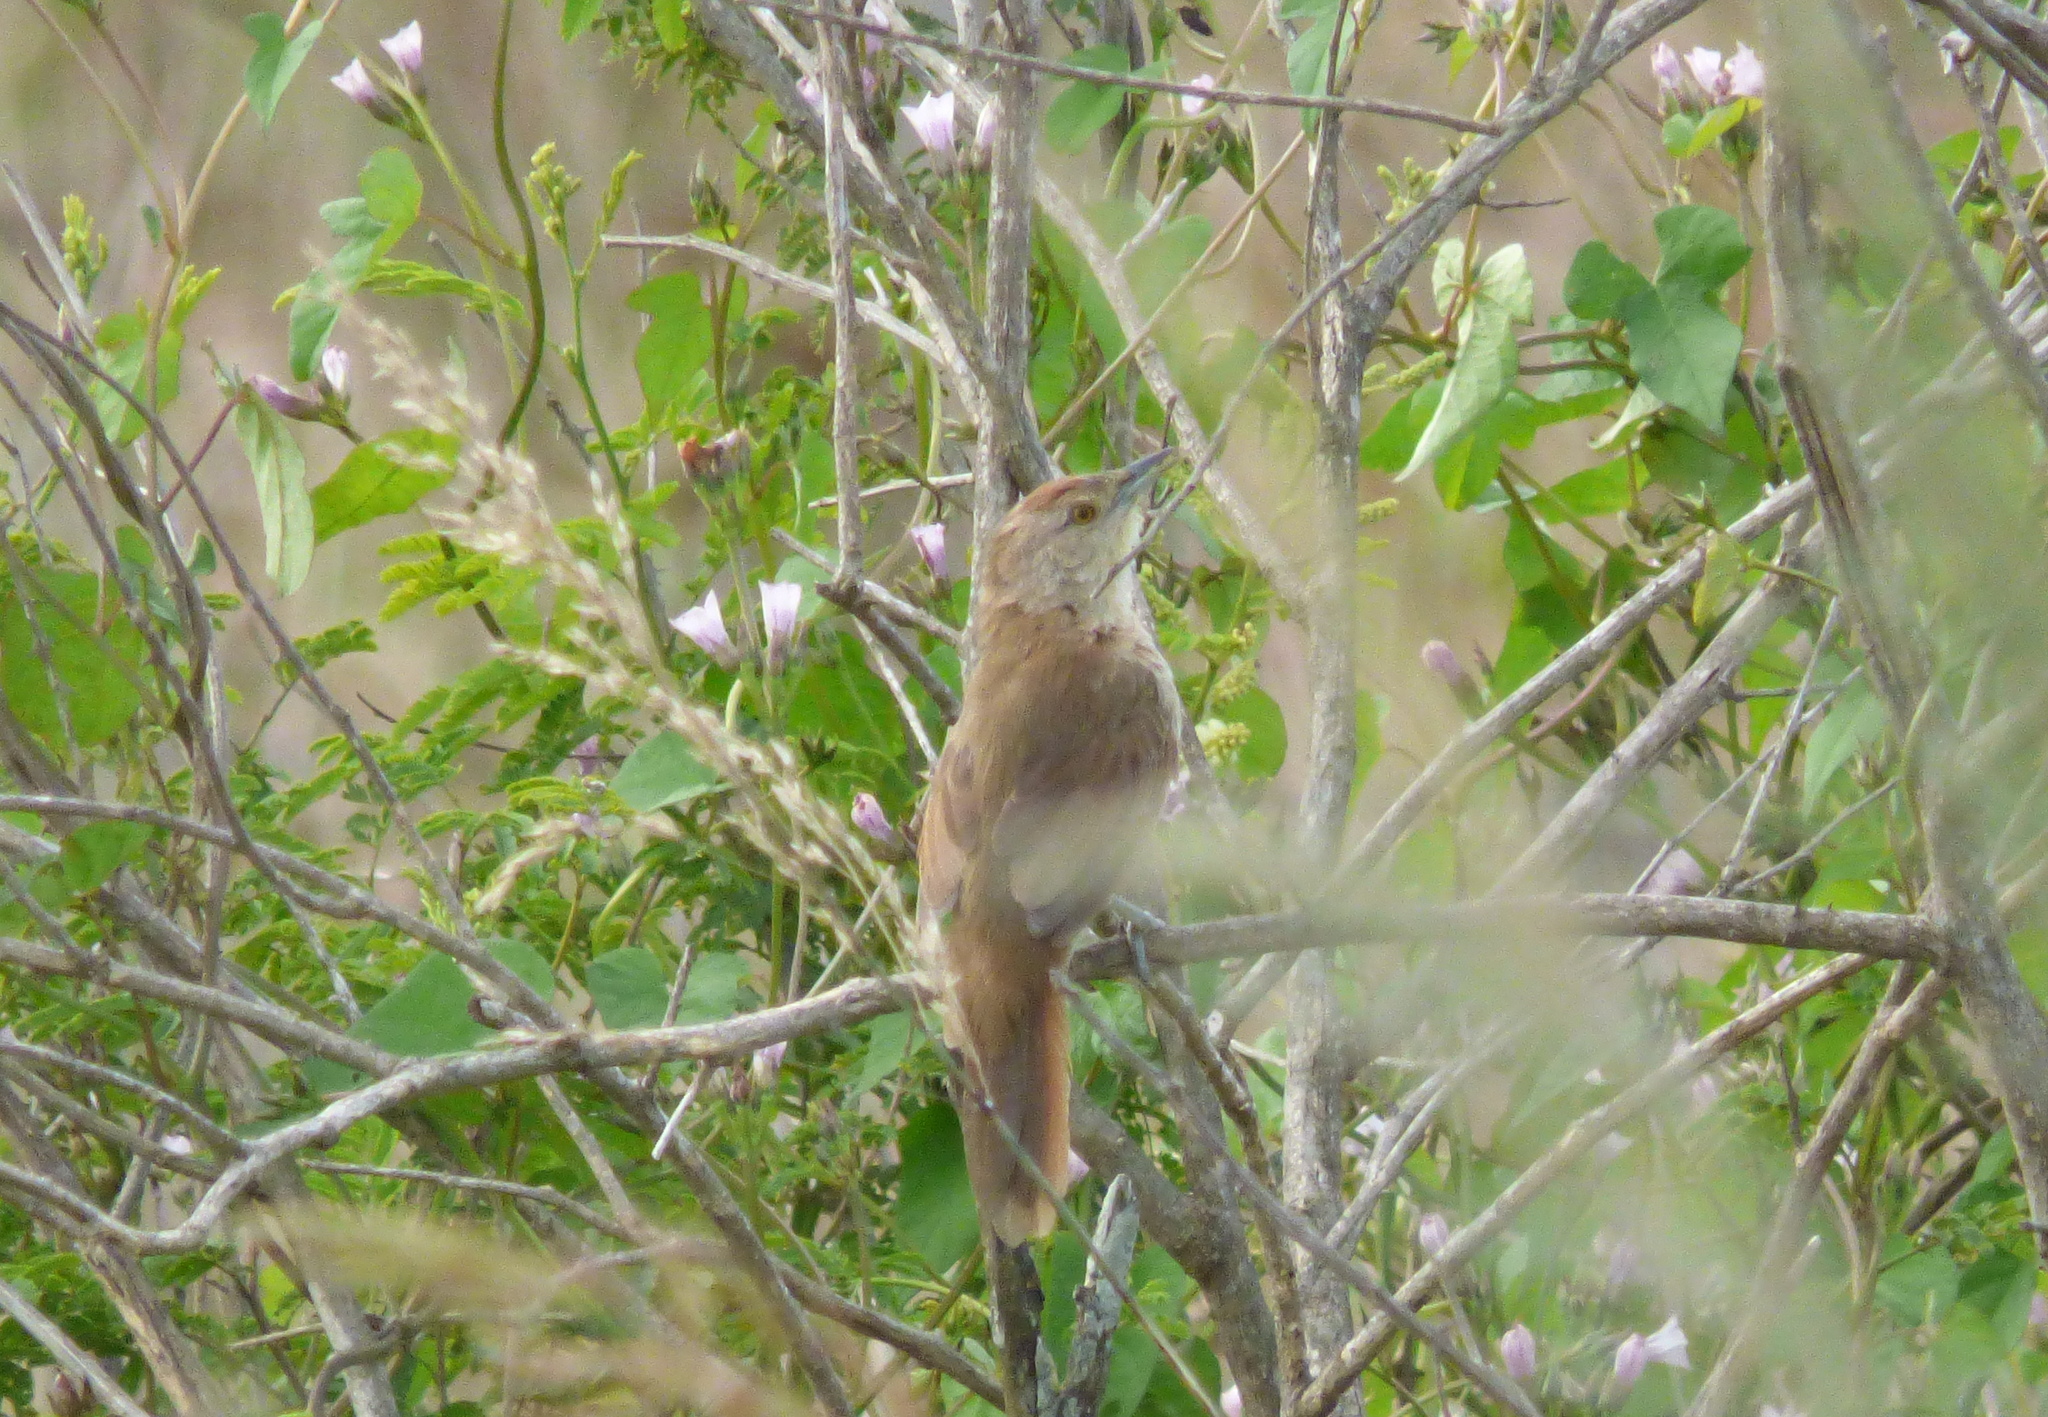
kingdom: Animalia
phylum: Chordata
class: Aves
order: Passeriformes
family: Furnariidae
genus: Phacellodomus
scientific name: Phacellodomus striaticollis
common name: Freckle-breasted thornbird
